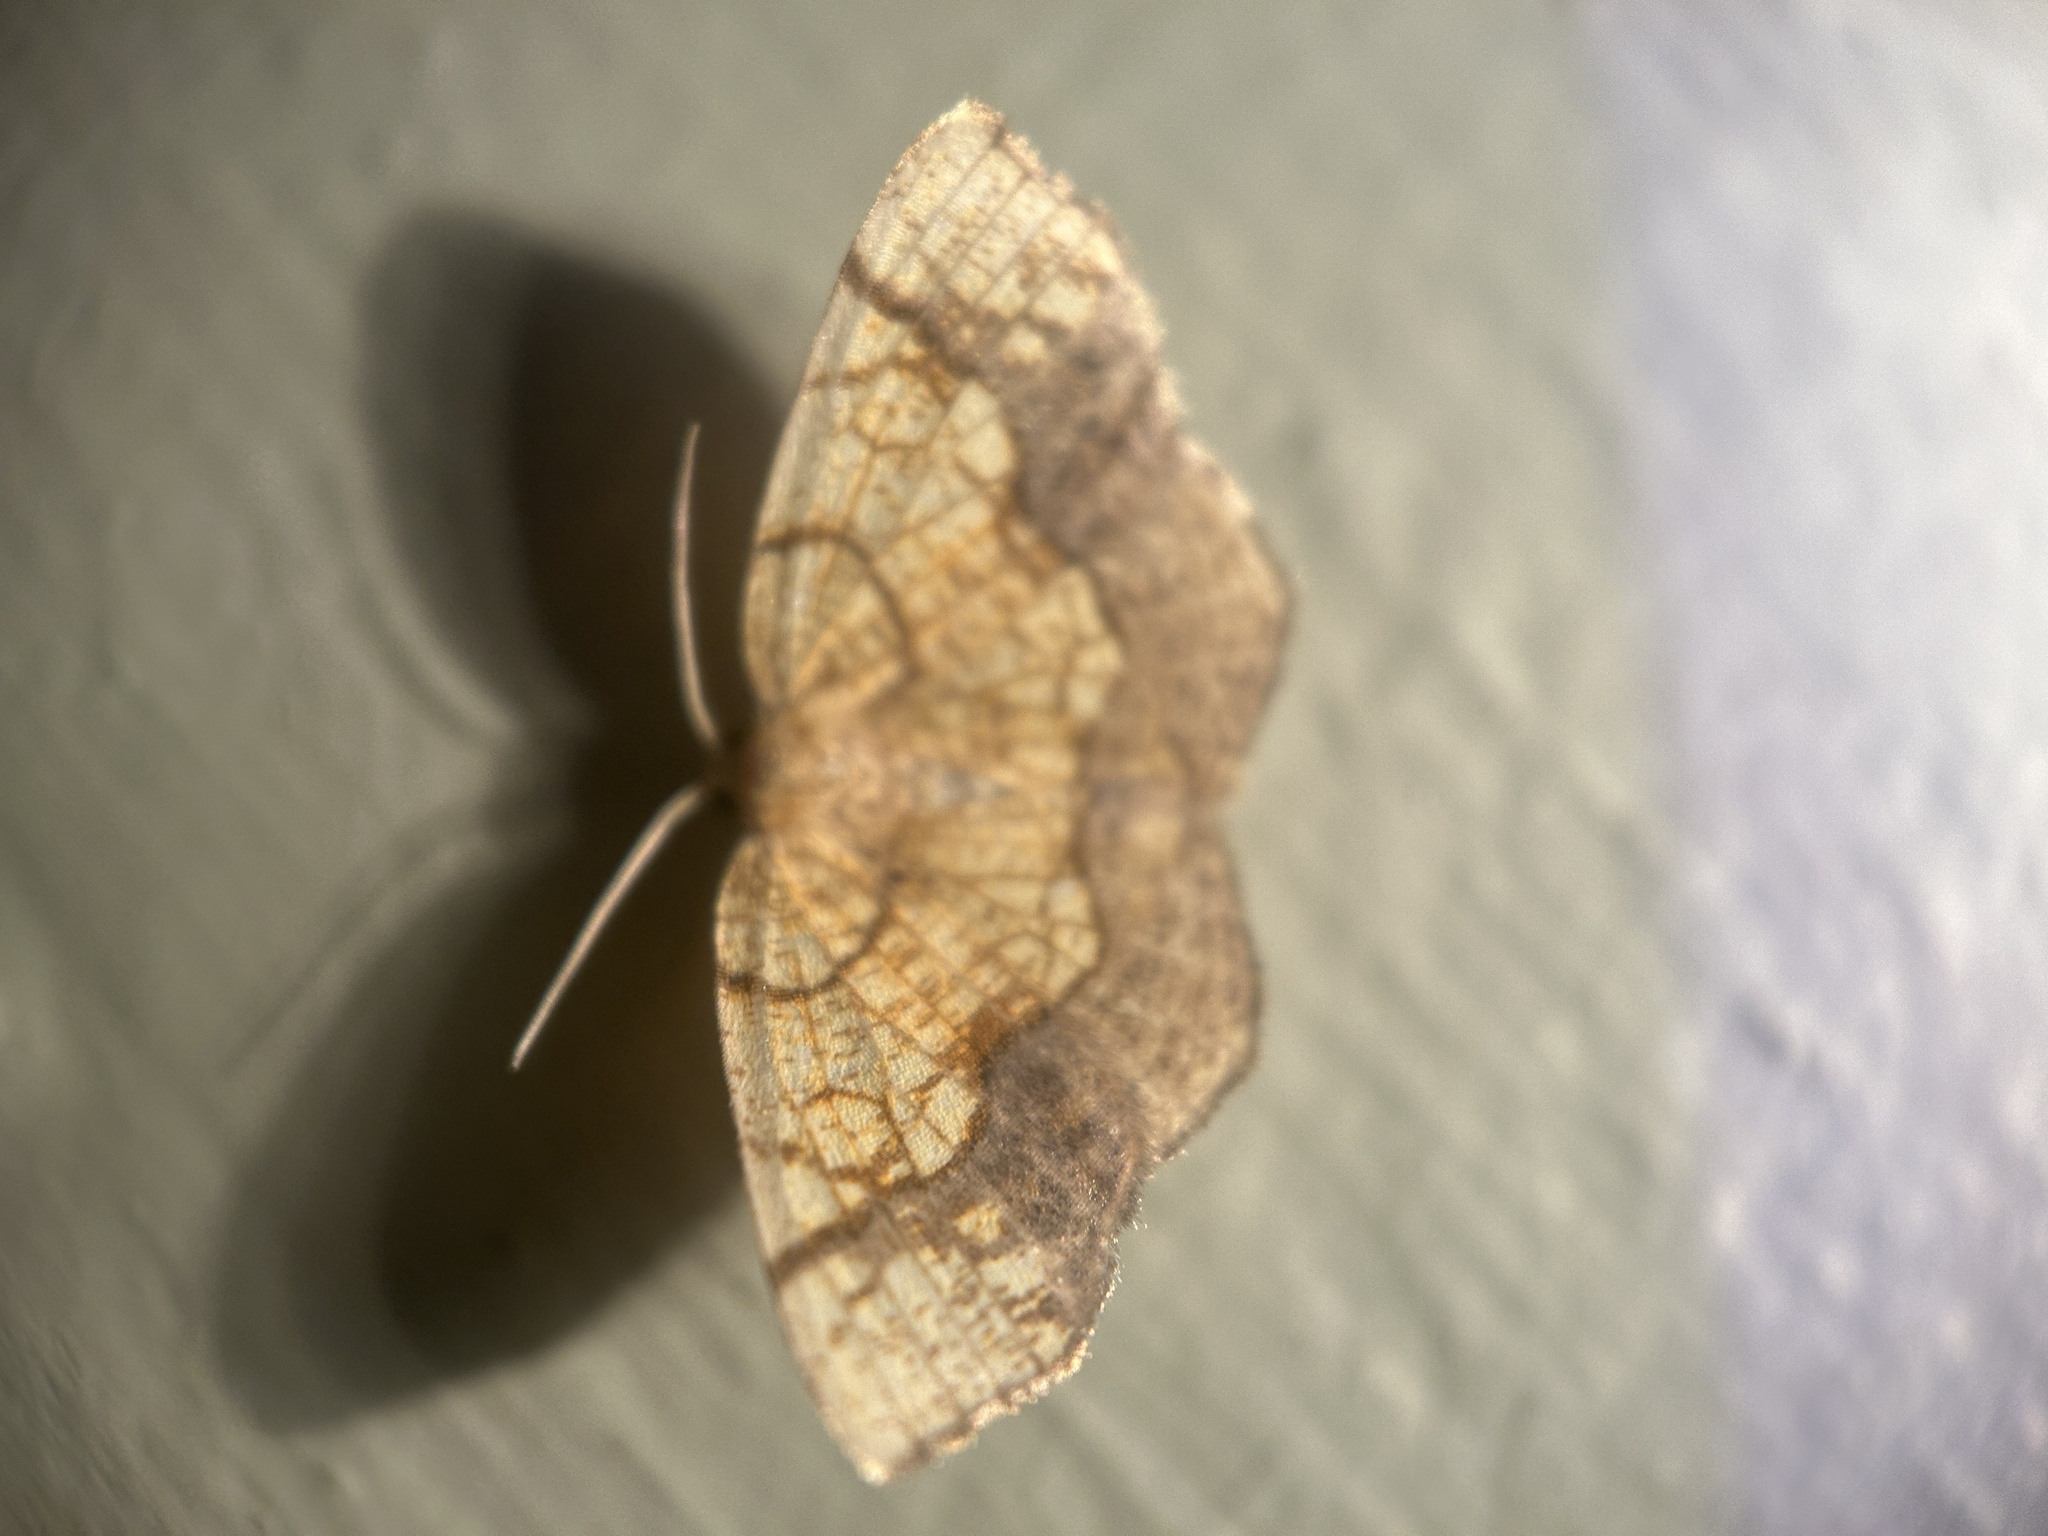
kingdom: Animalia
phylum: Arthropoda
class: Insecta
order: Lepidoptera
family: Geometridae
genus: Nematocampa
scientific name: Nematocampa resistaria
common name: Horned spanworm moth
